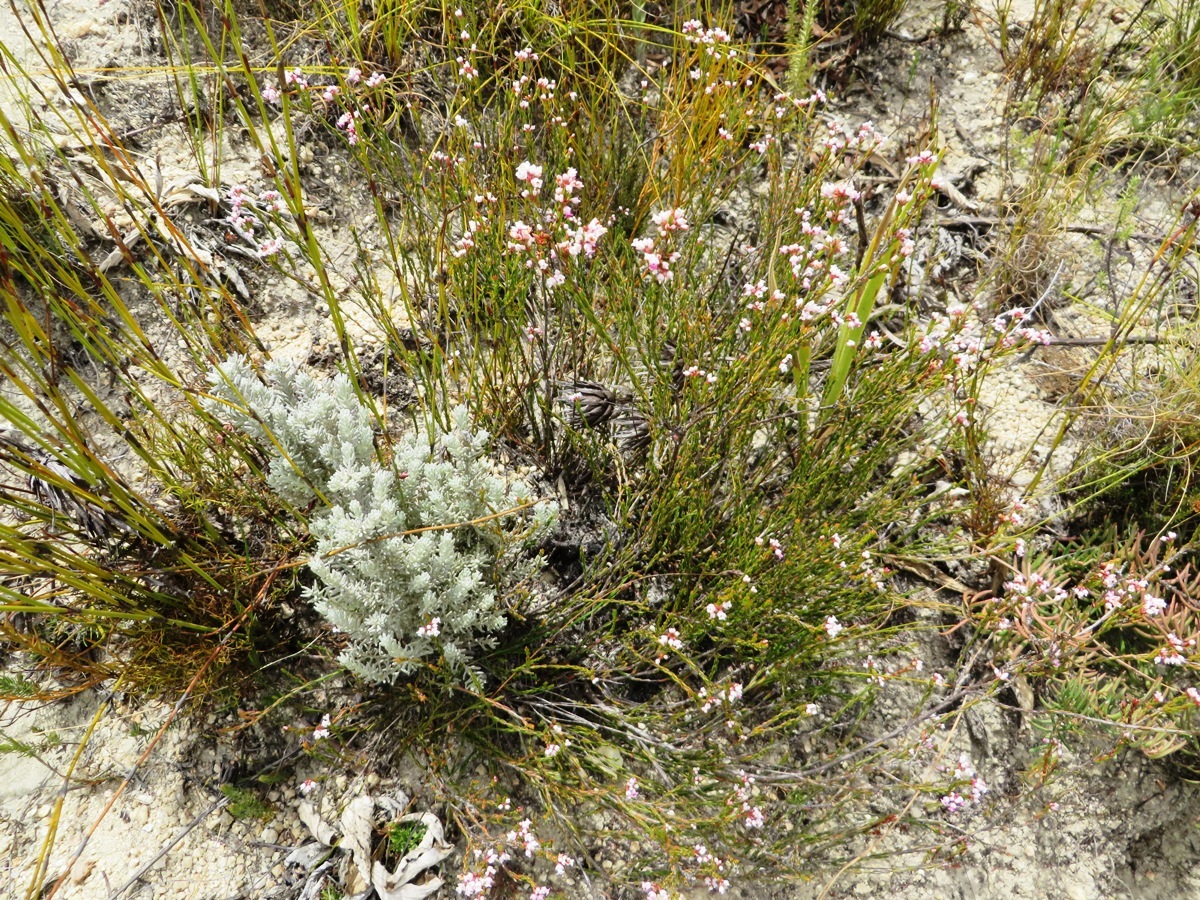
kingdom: Plantae
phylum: Tracheophyta
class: Magnoliopsida
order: Ericales
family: Ericaceae
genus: Erica
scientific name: Erica articularis
